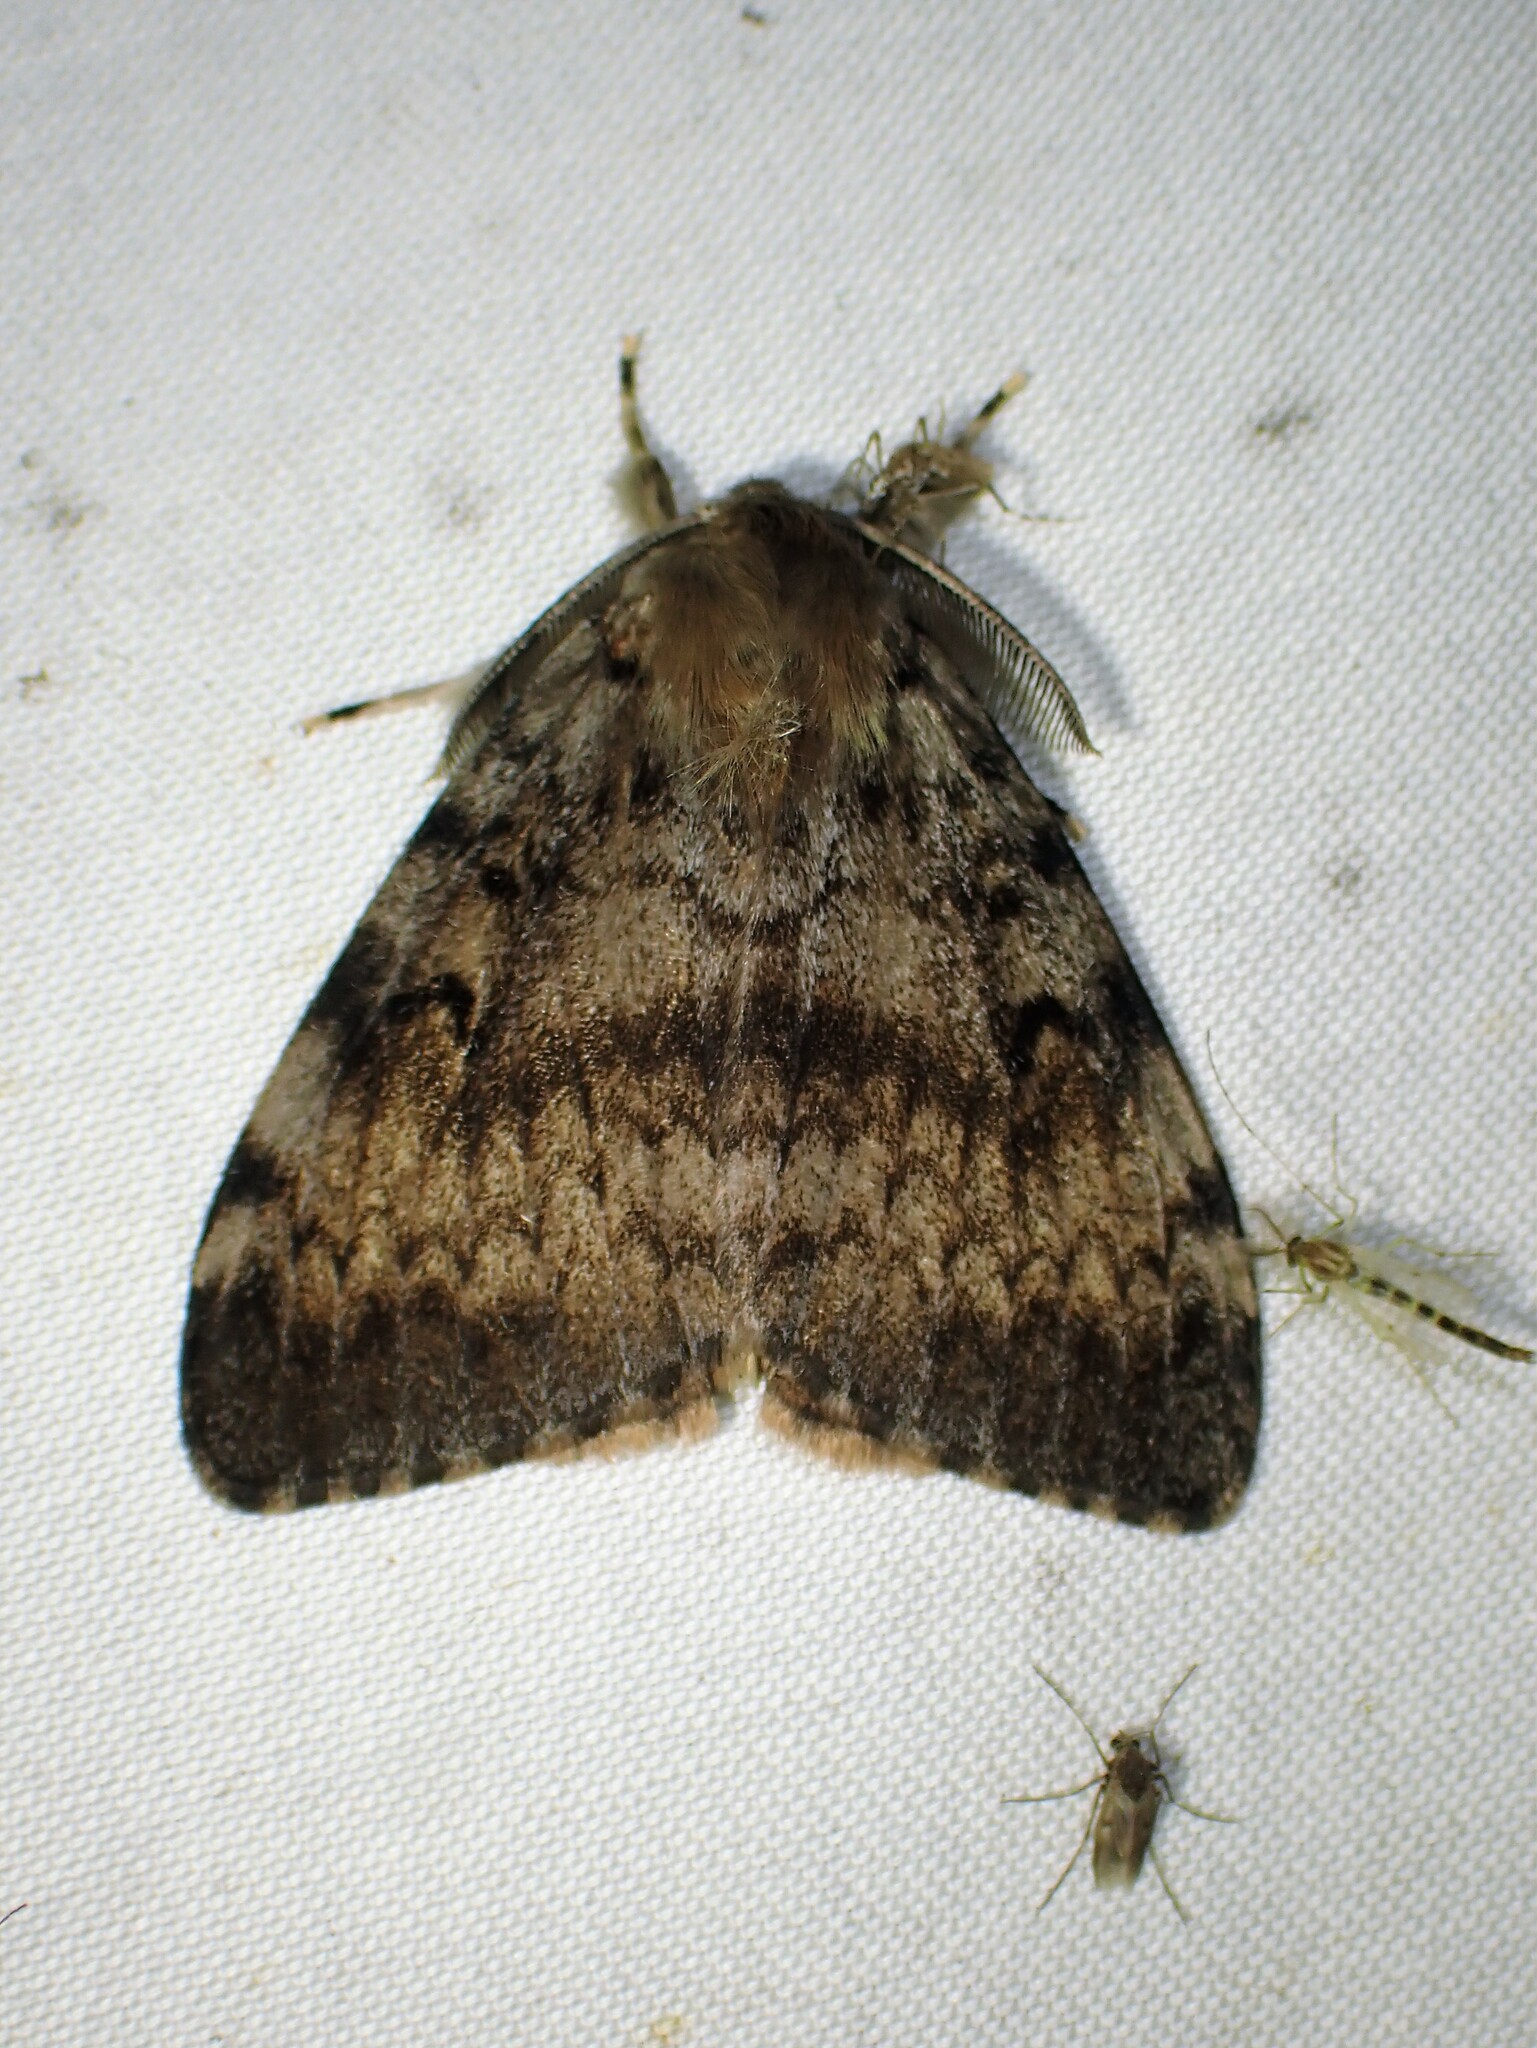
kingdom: Animalia
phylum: Arthropoda
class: Insecta
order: Lepidoptera
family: Erebidae
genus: Lymantria
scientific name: Lymantria dispar
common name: Gypsy moth
